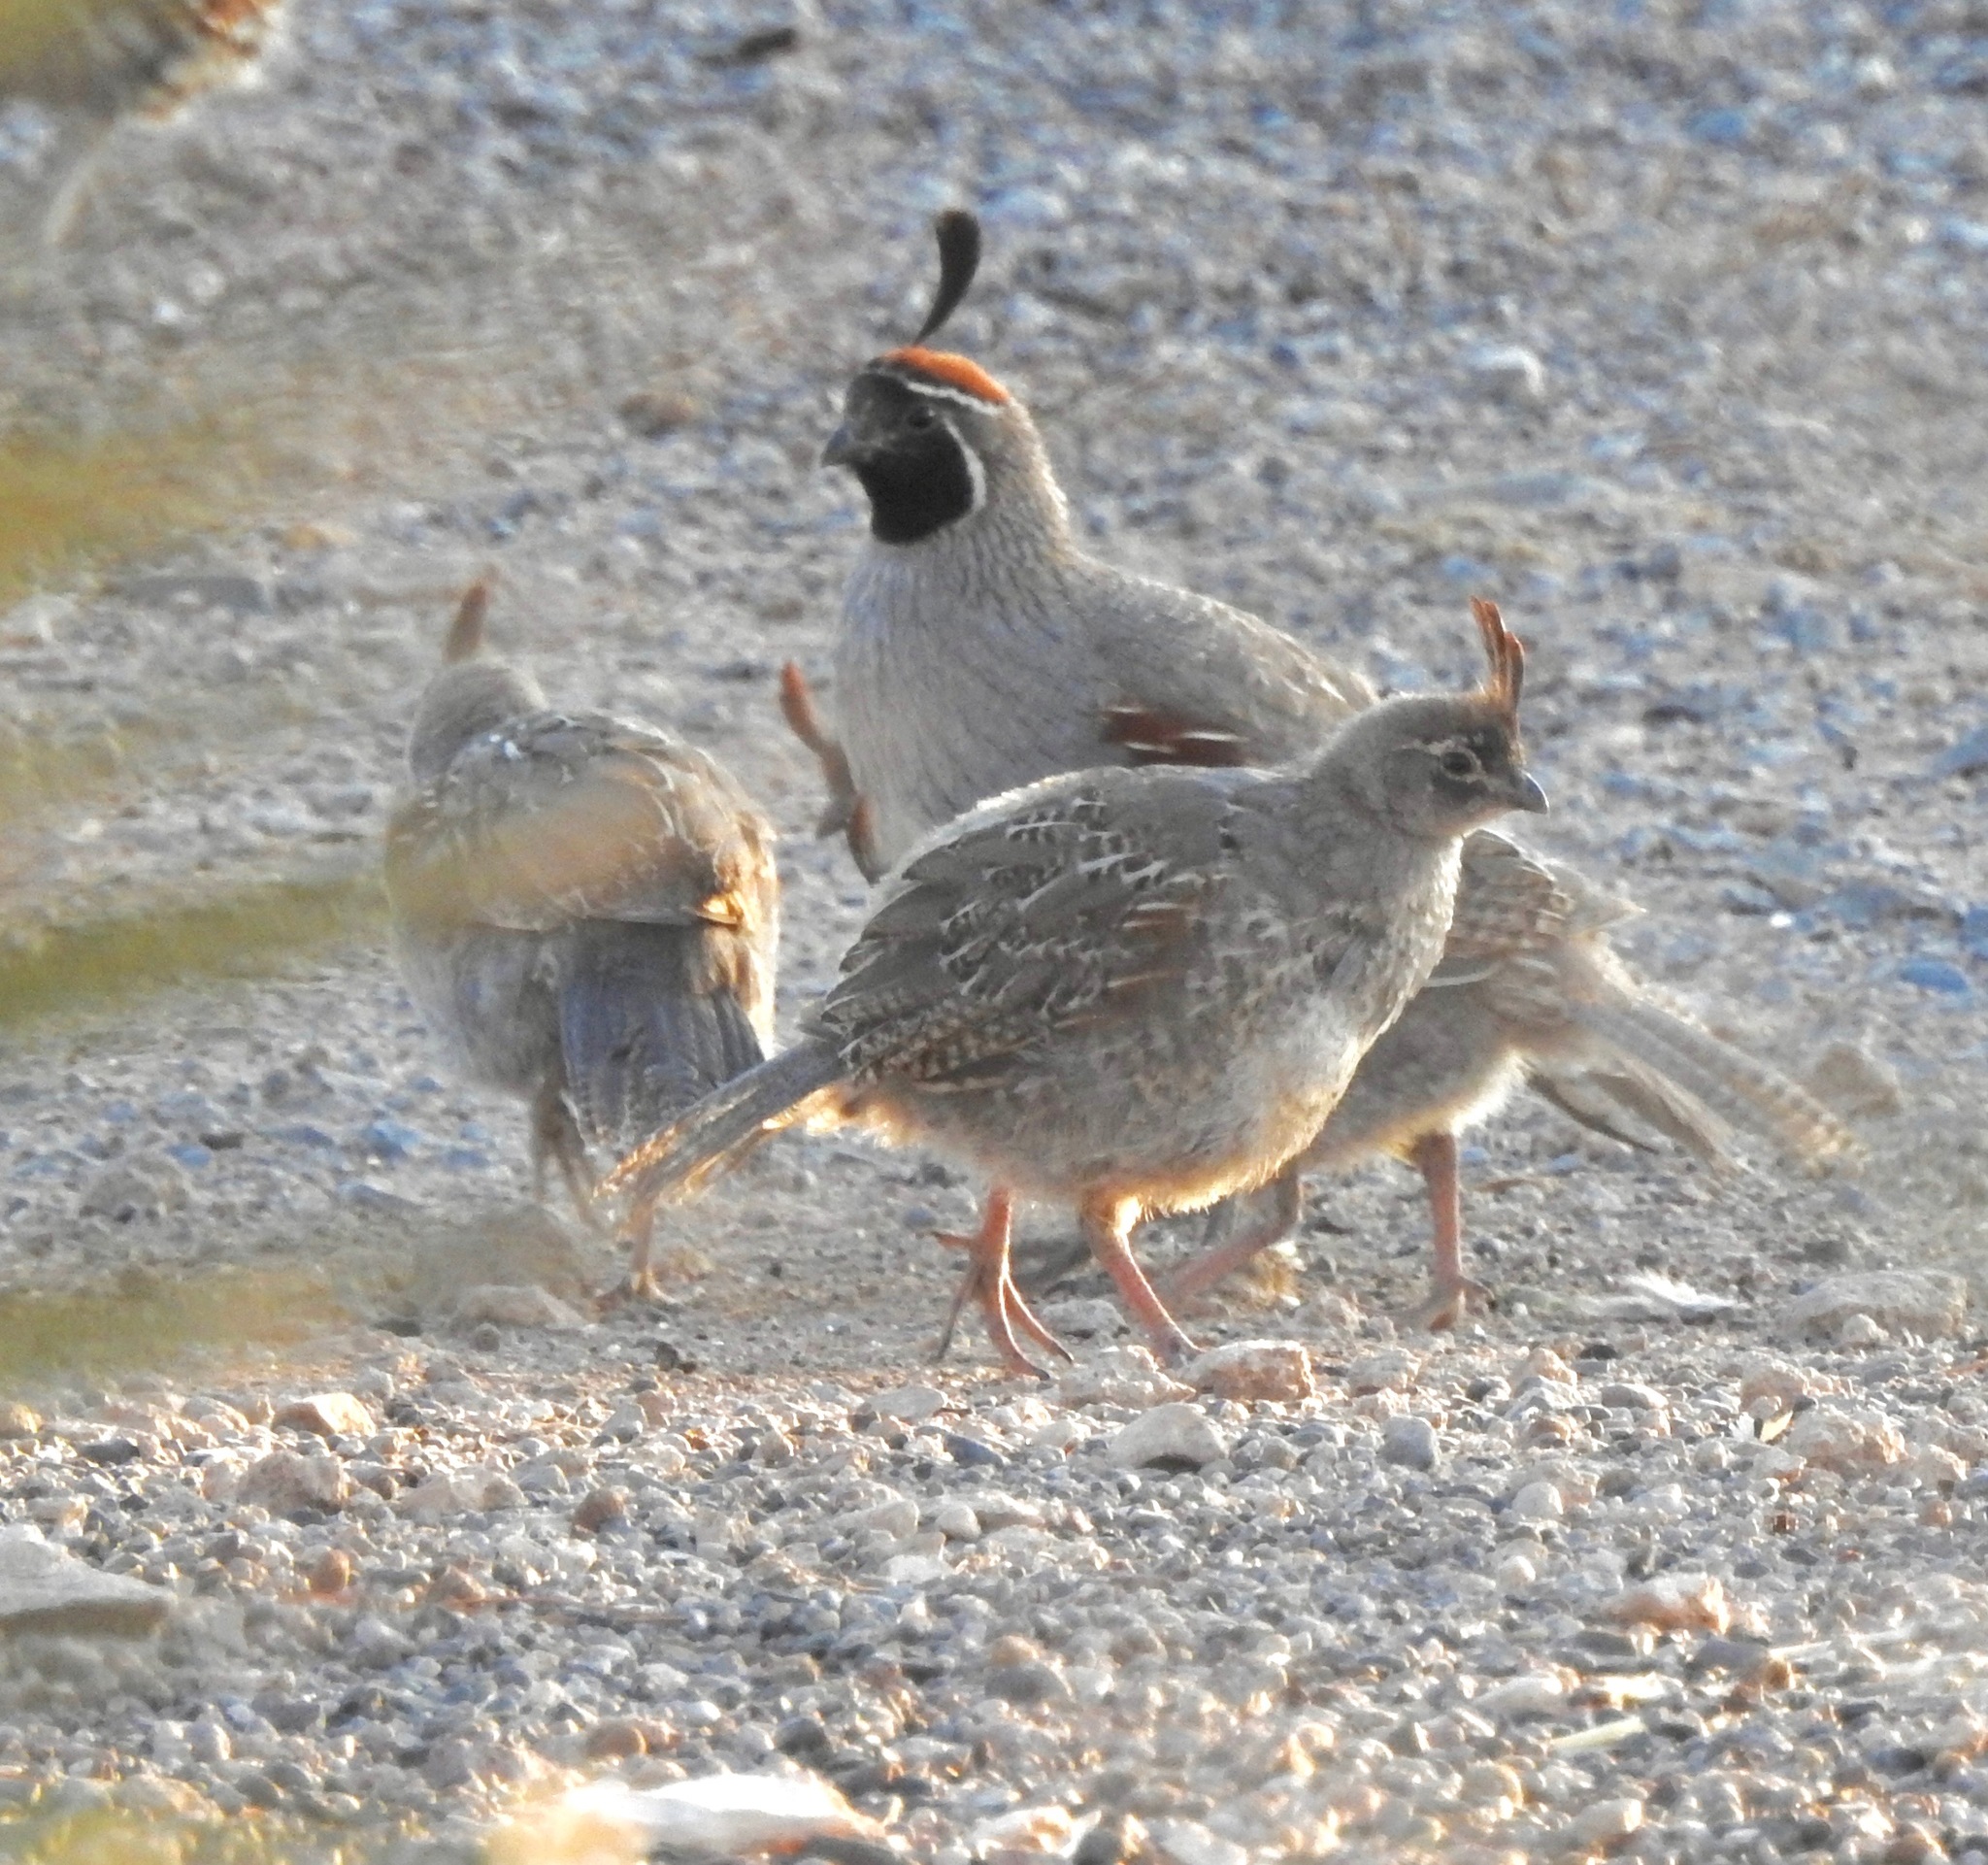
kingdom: Animalia
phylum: Chordata
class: Aves
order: Galliformes
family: Odontophoridae
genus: Callipepla
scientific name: Callipepla gambelii
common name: Gambel's quail
